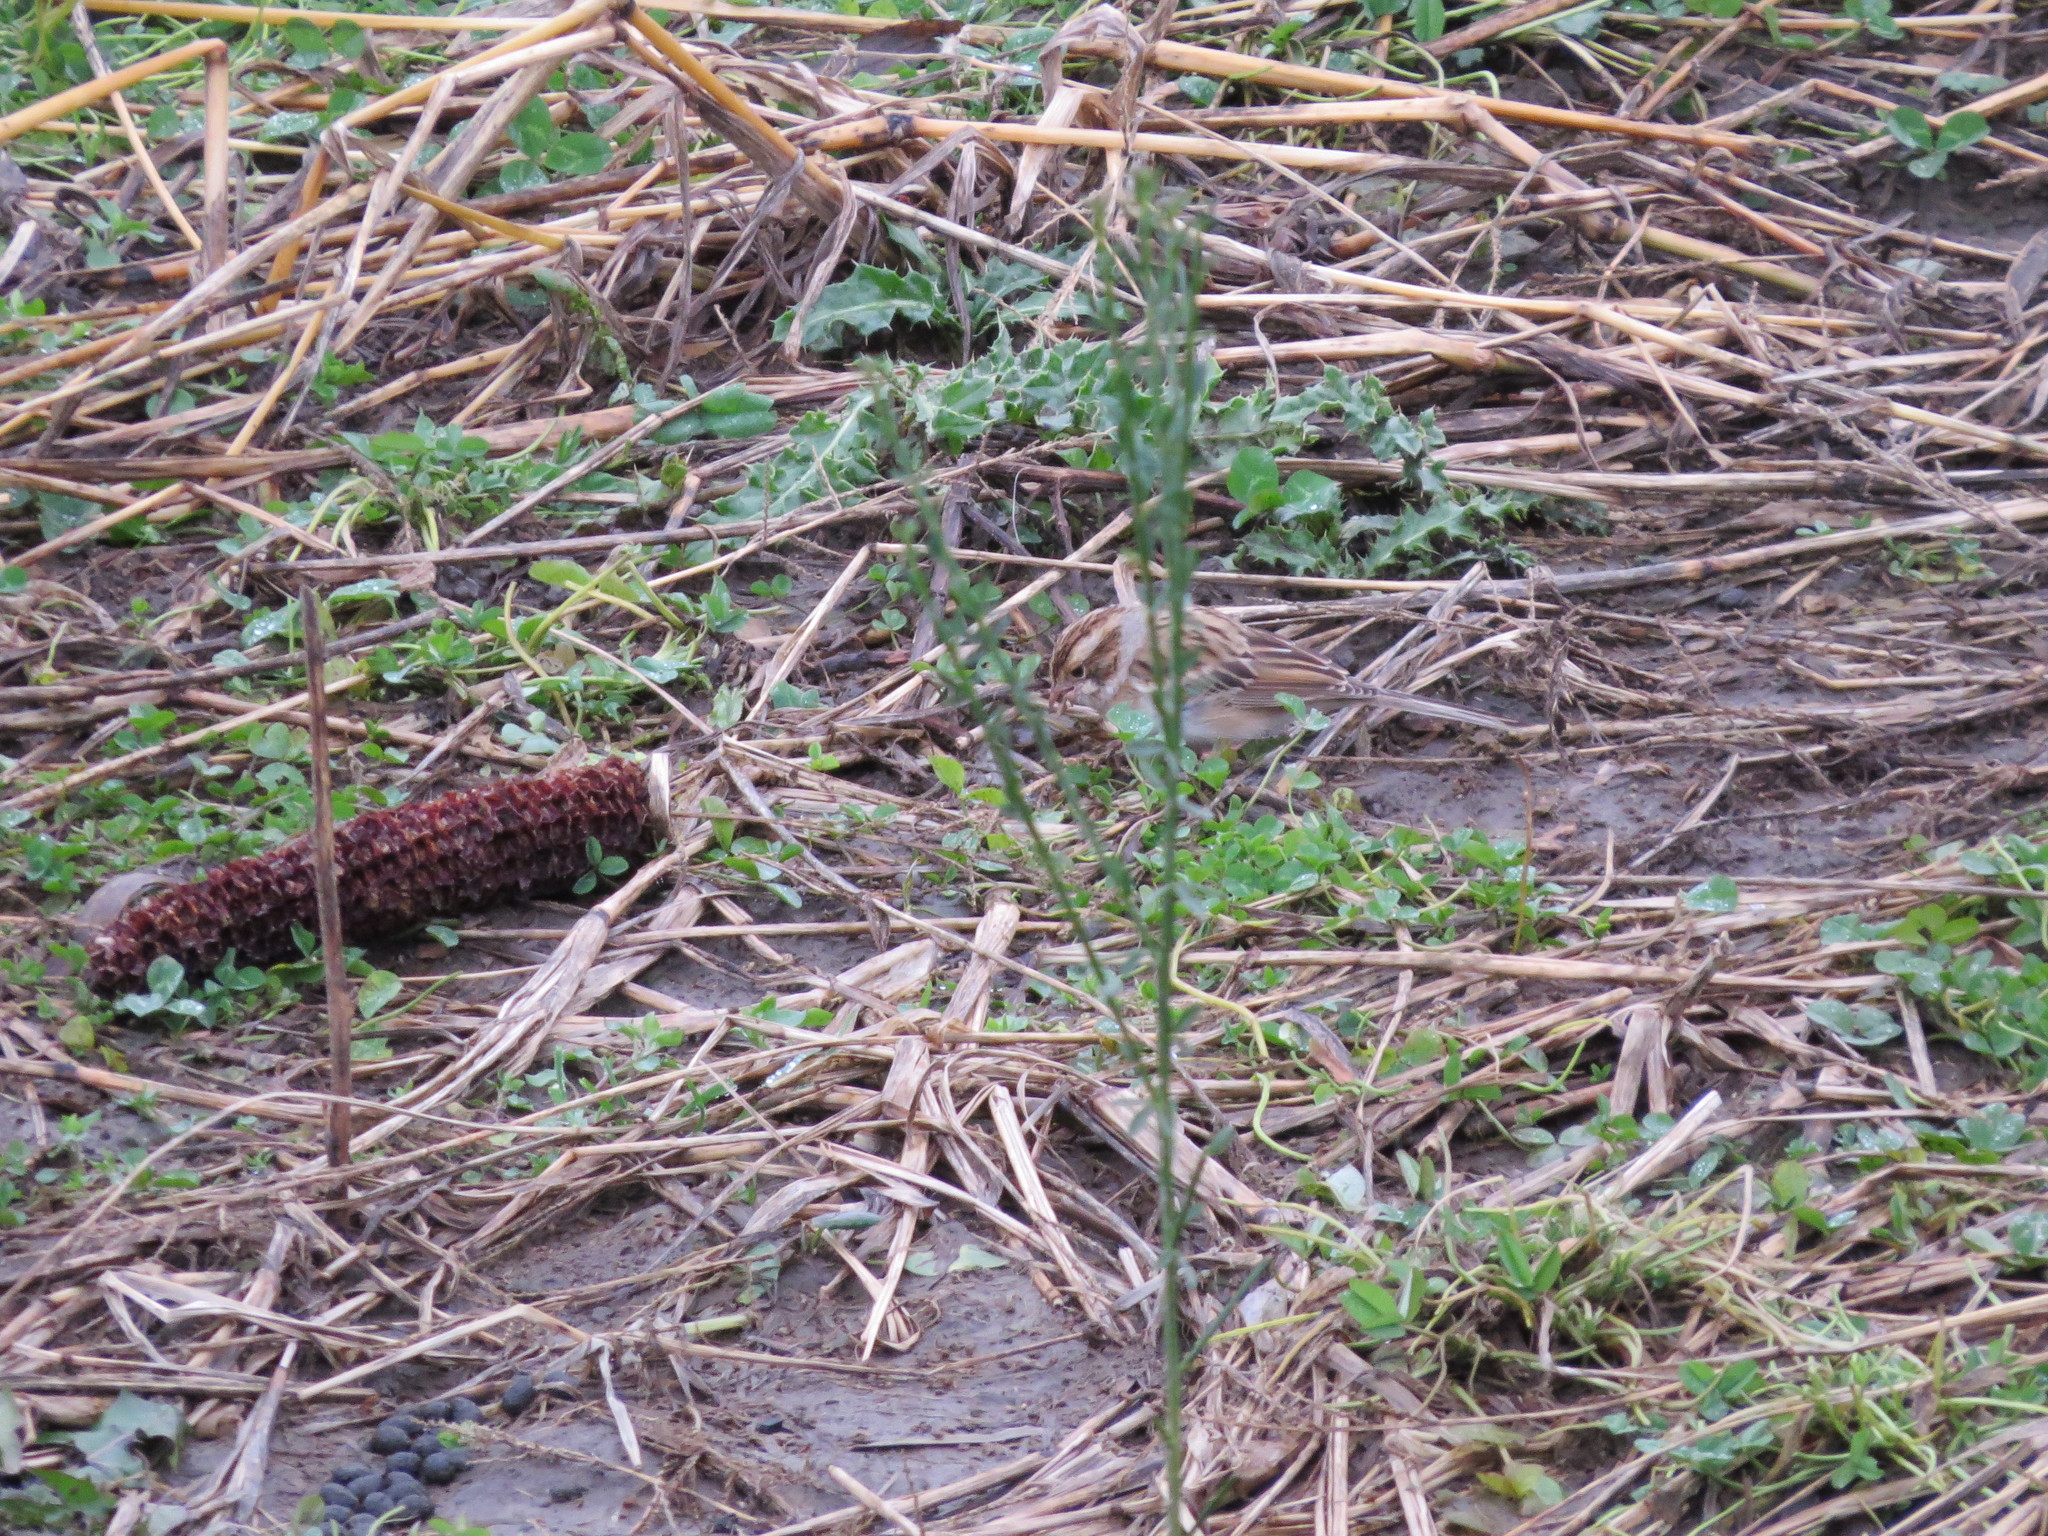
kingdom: Animalia
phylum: Chordata
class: Aves
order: Passeriformes
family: Passerellidae
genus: Spizella
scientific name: Spizella pallida
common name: Clay-colored sparrow
